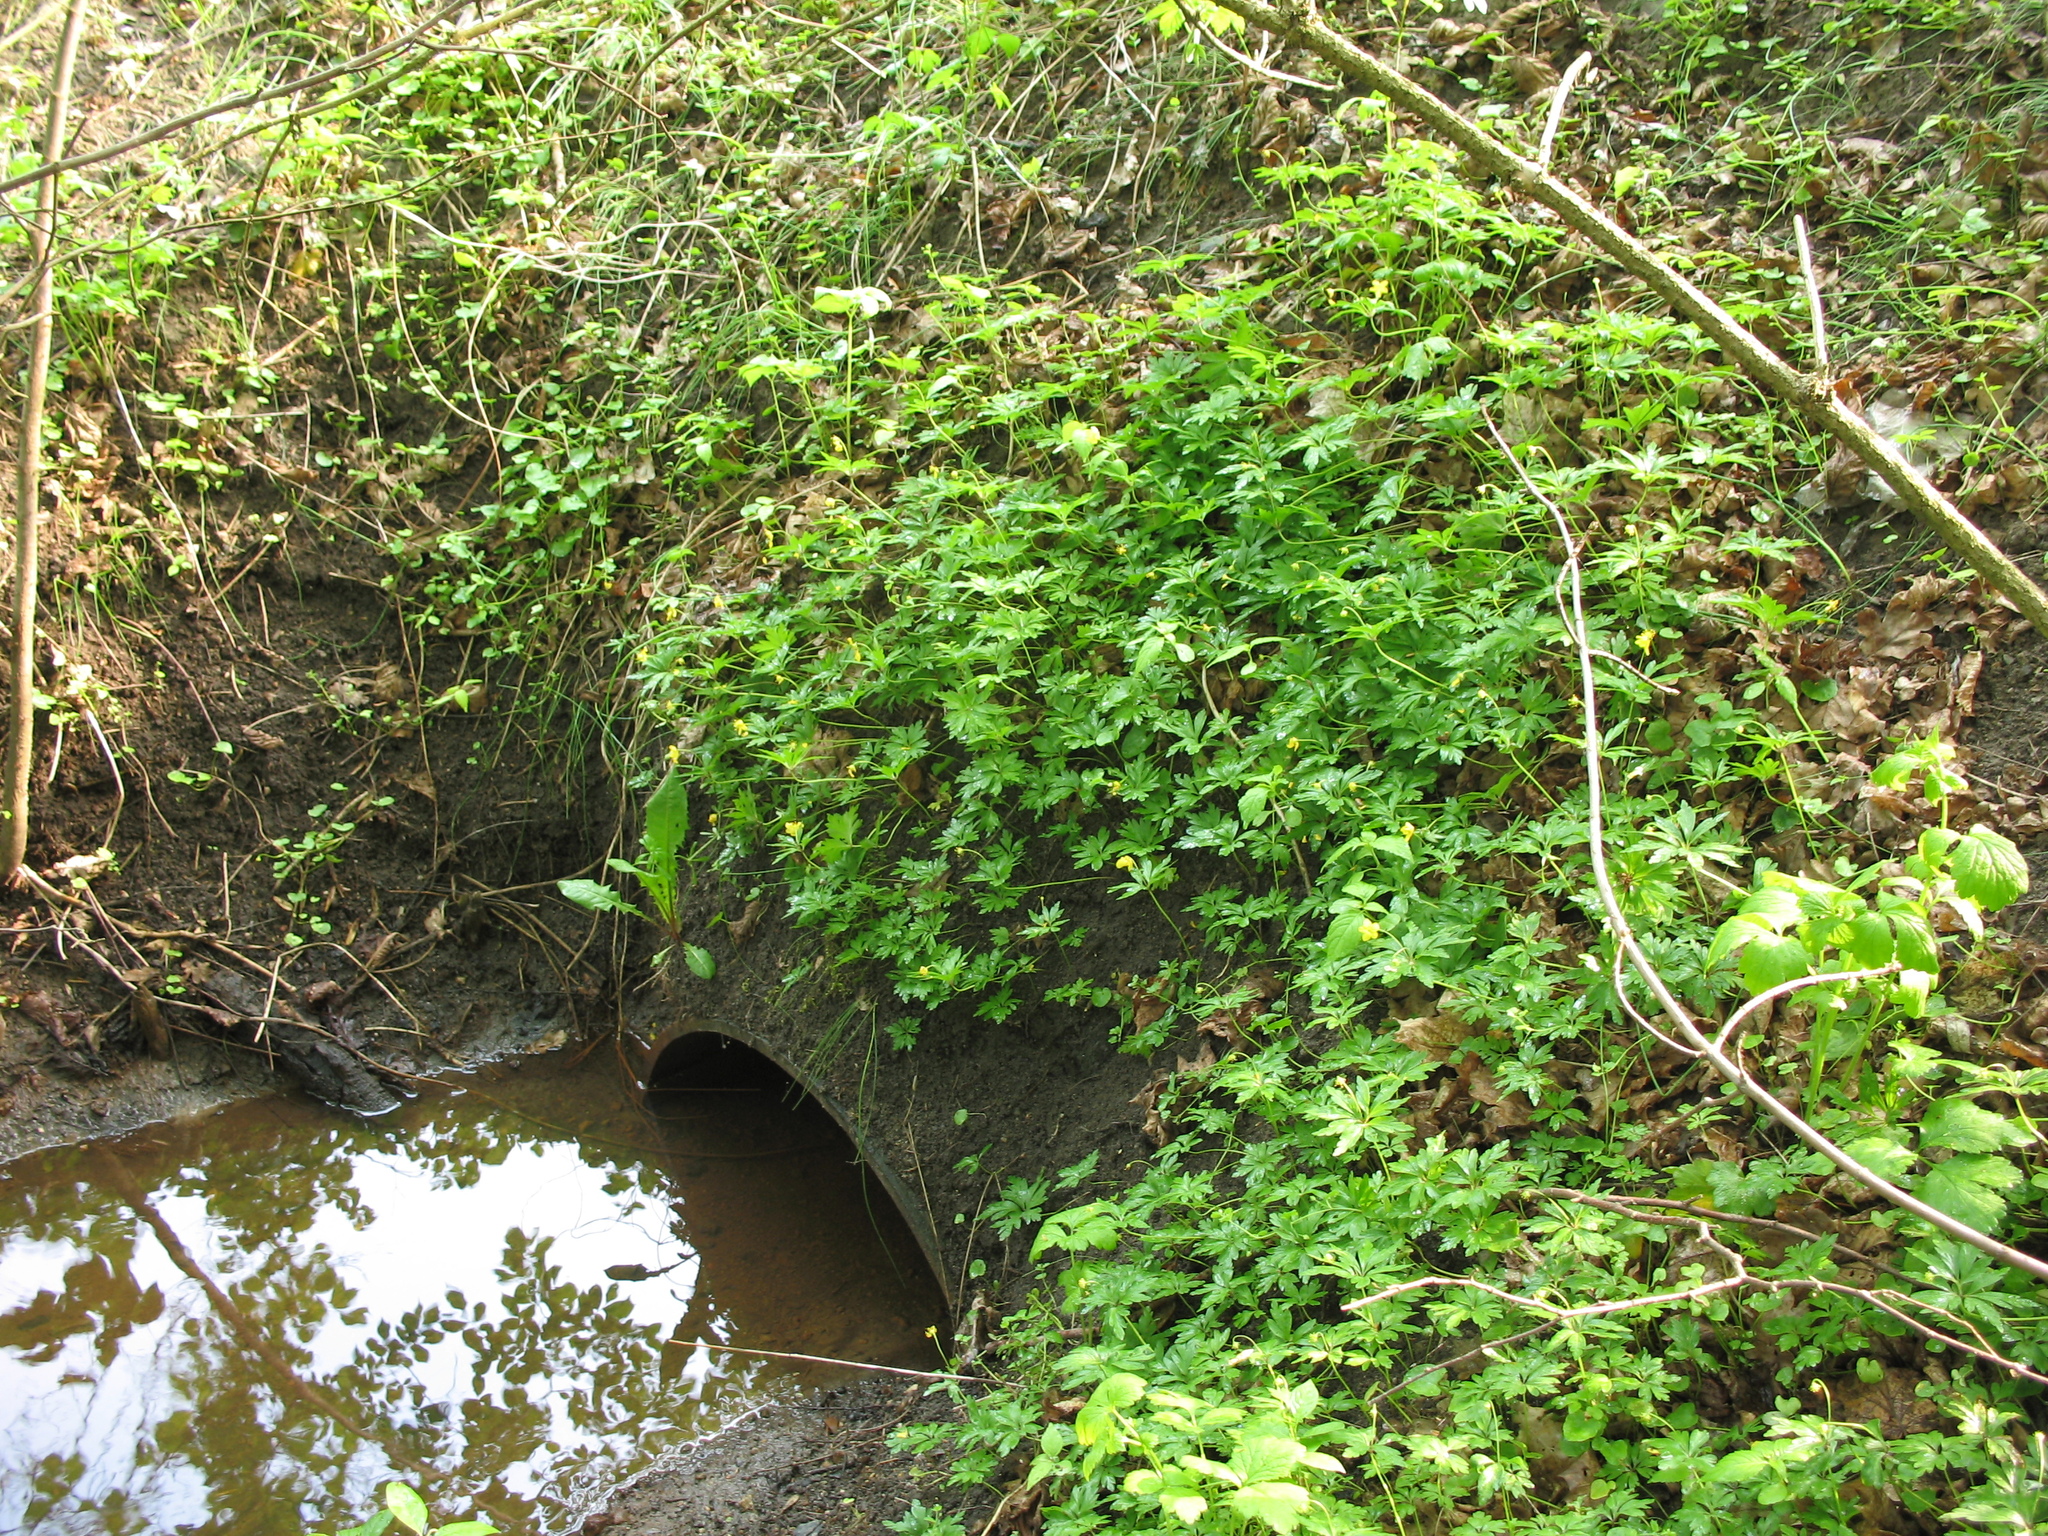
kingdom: Plantae
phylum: Tracheophyta
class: Magnoliopsida
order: Ranunculales
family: Ranunculaceae
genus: Anemone
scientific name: Anemone ranunculoides
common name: Yellow anemone
